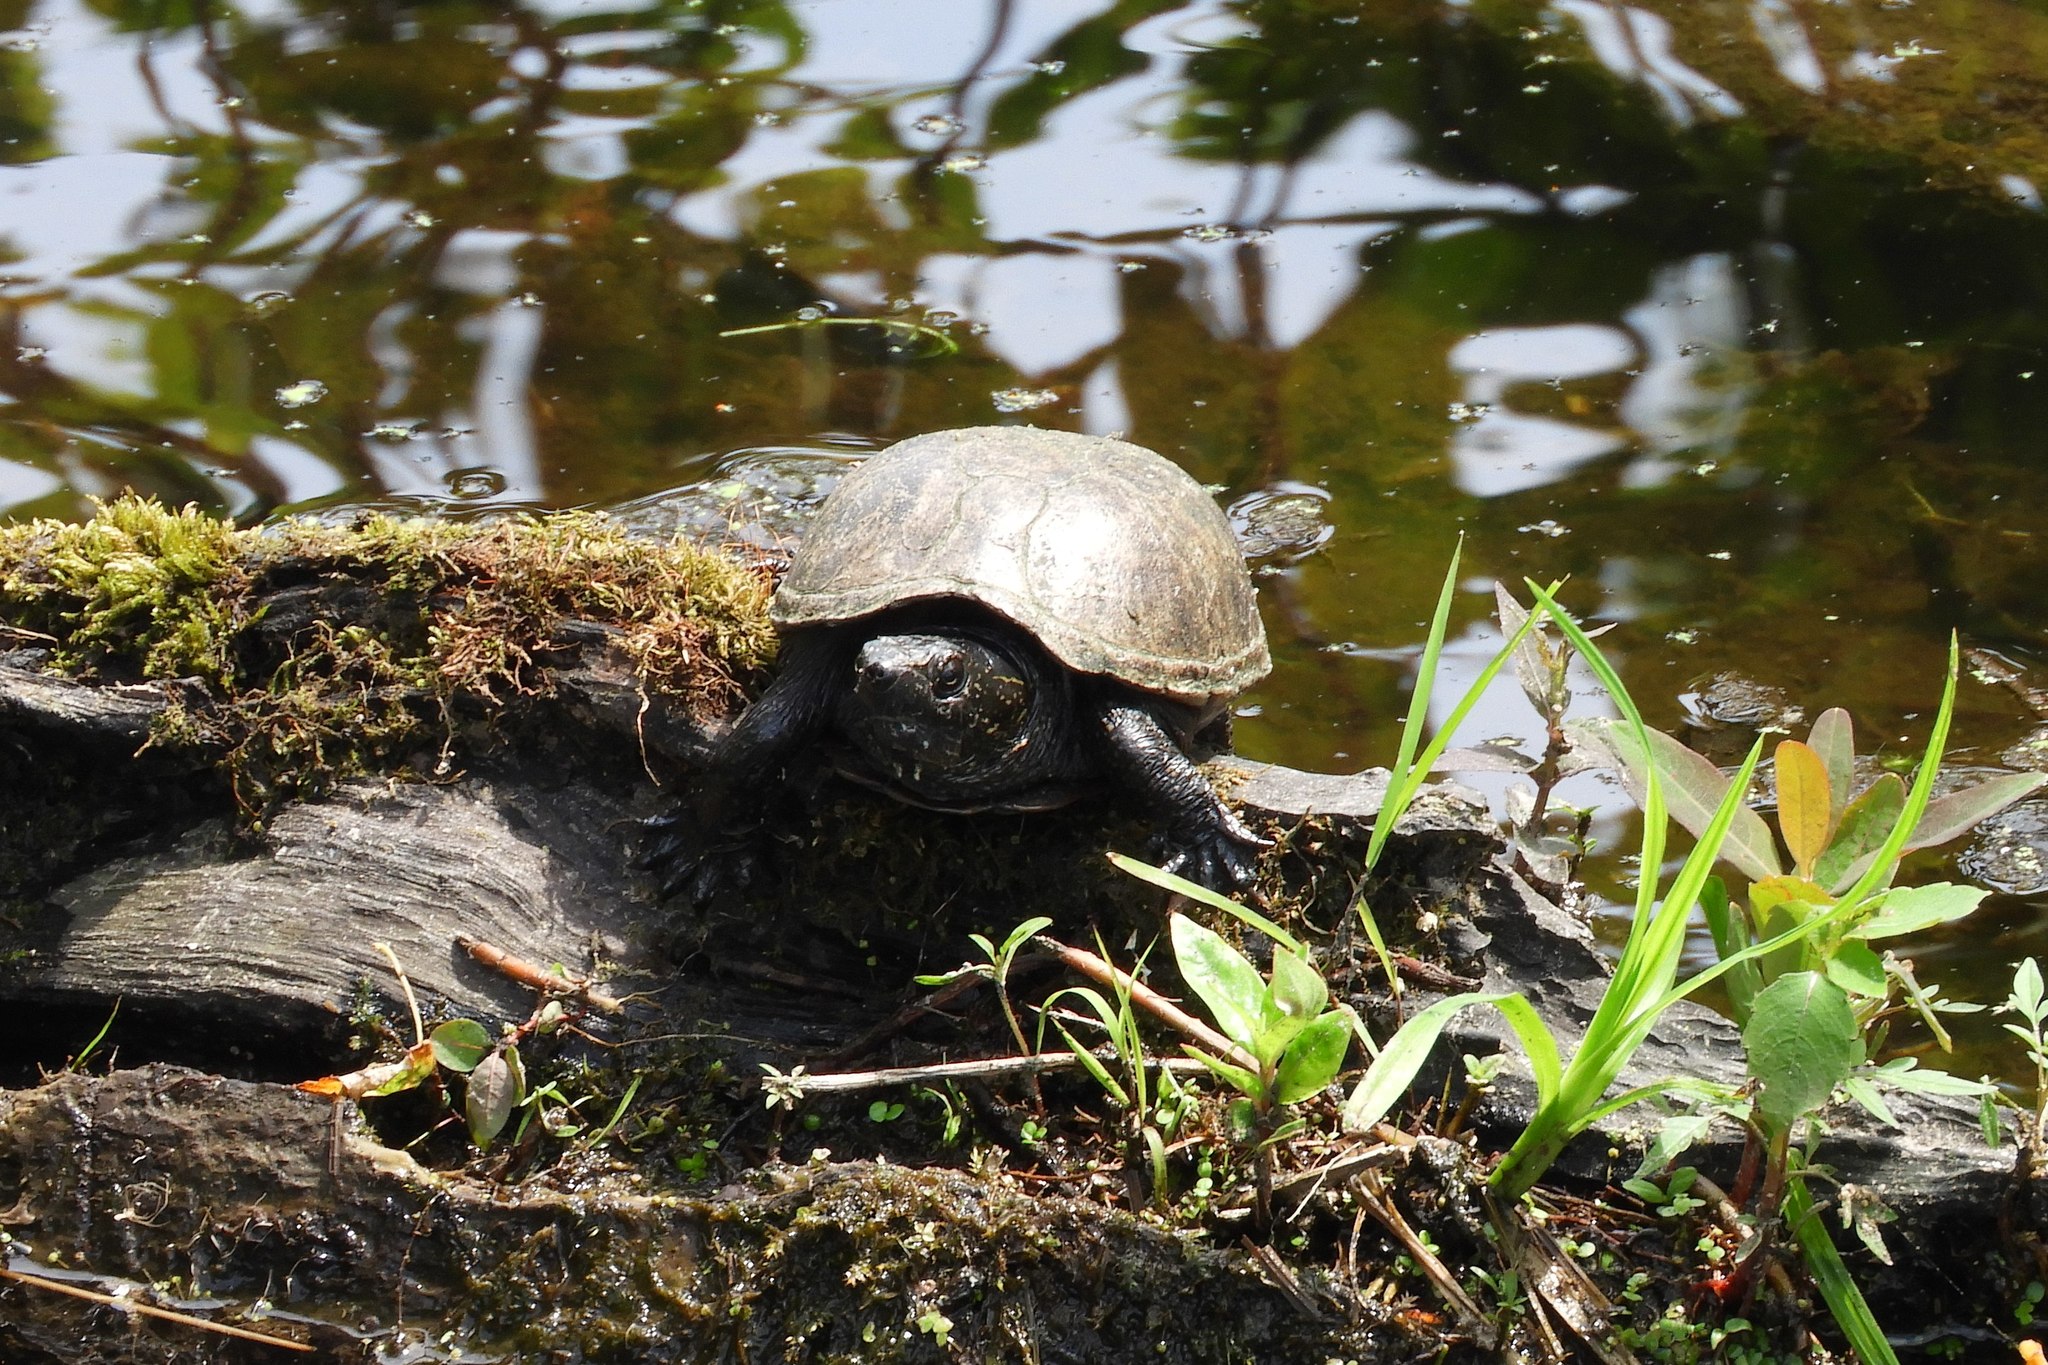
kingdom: Animalia
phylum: Chordata
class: Testudines
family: Kinosternidae
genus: Kinosternon
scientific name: Kinosternon baurii
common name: Striped mud turtle
